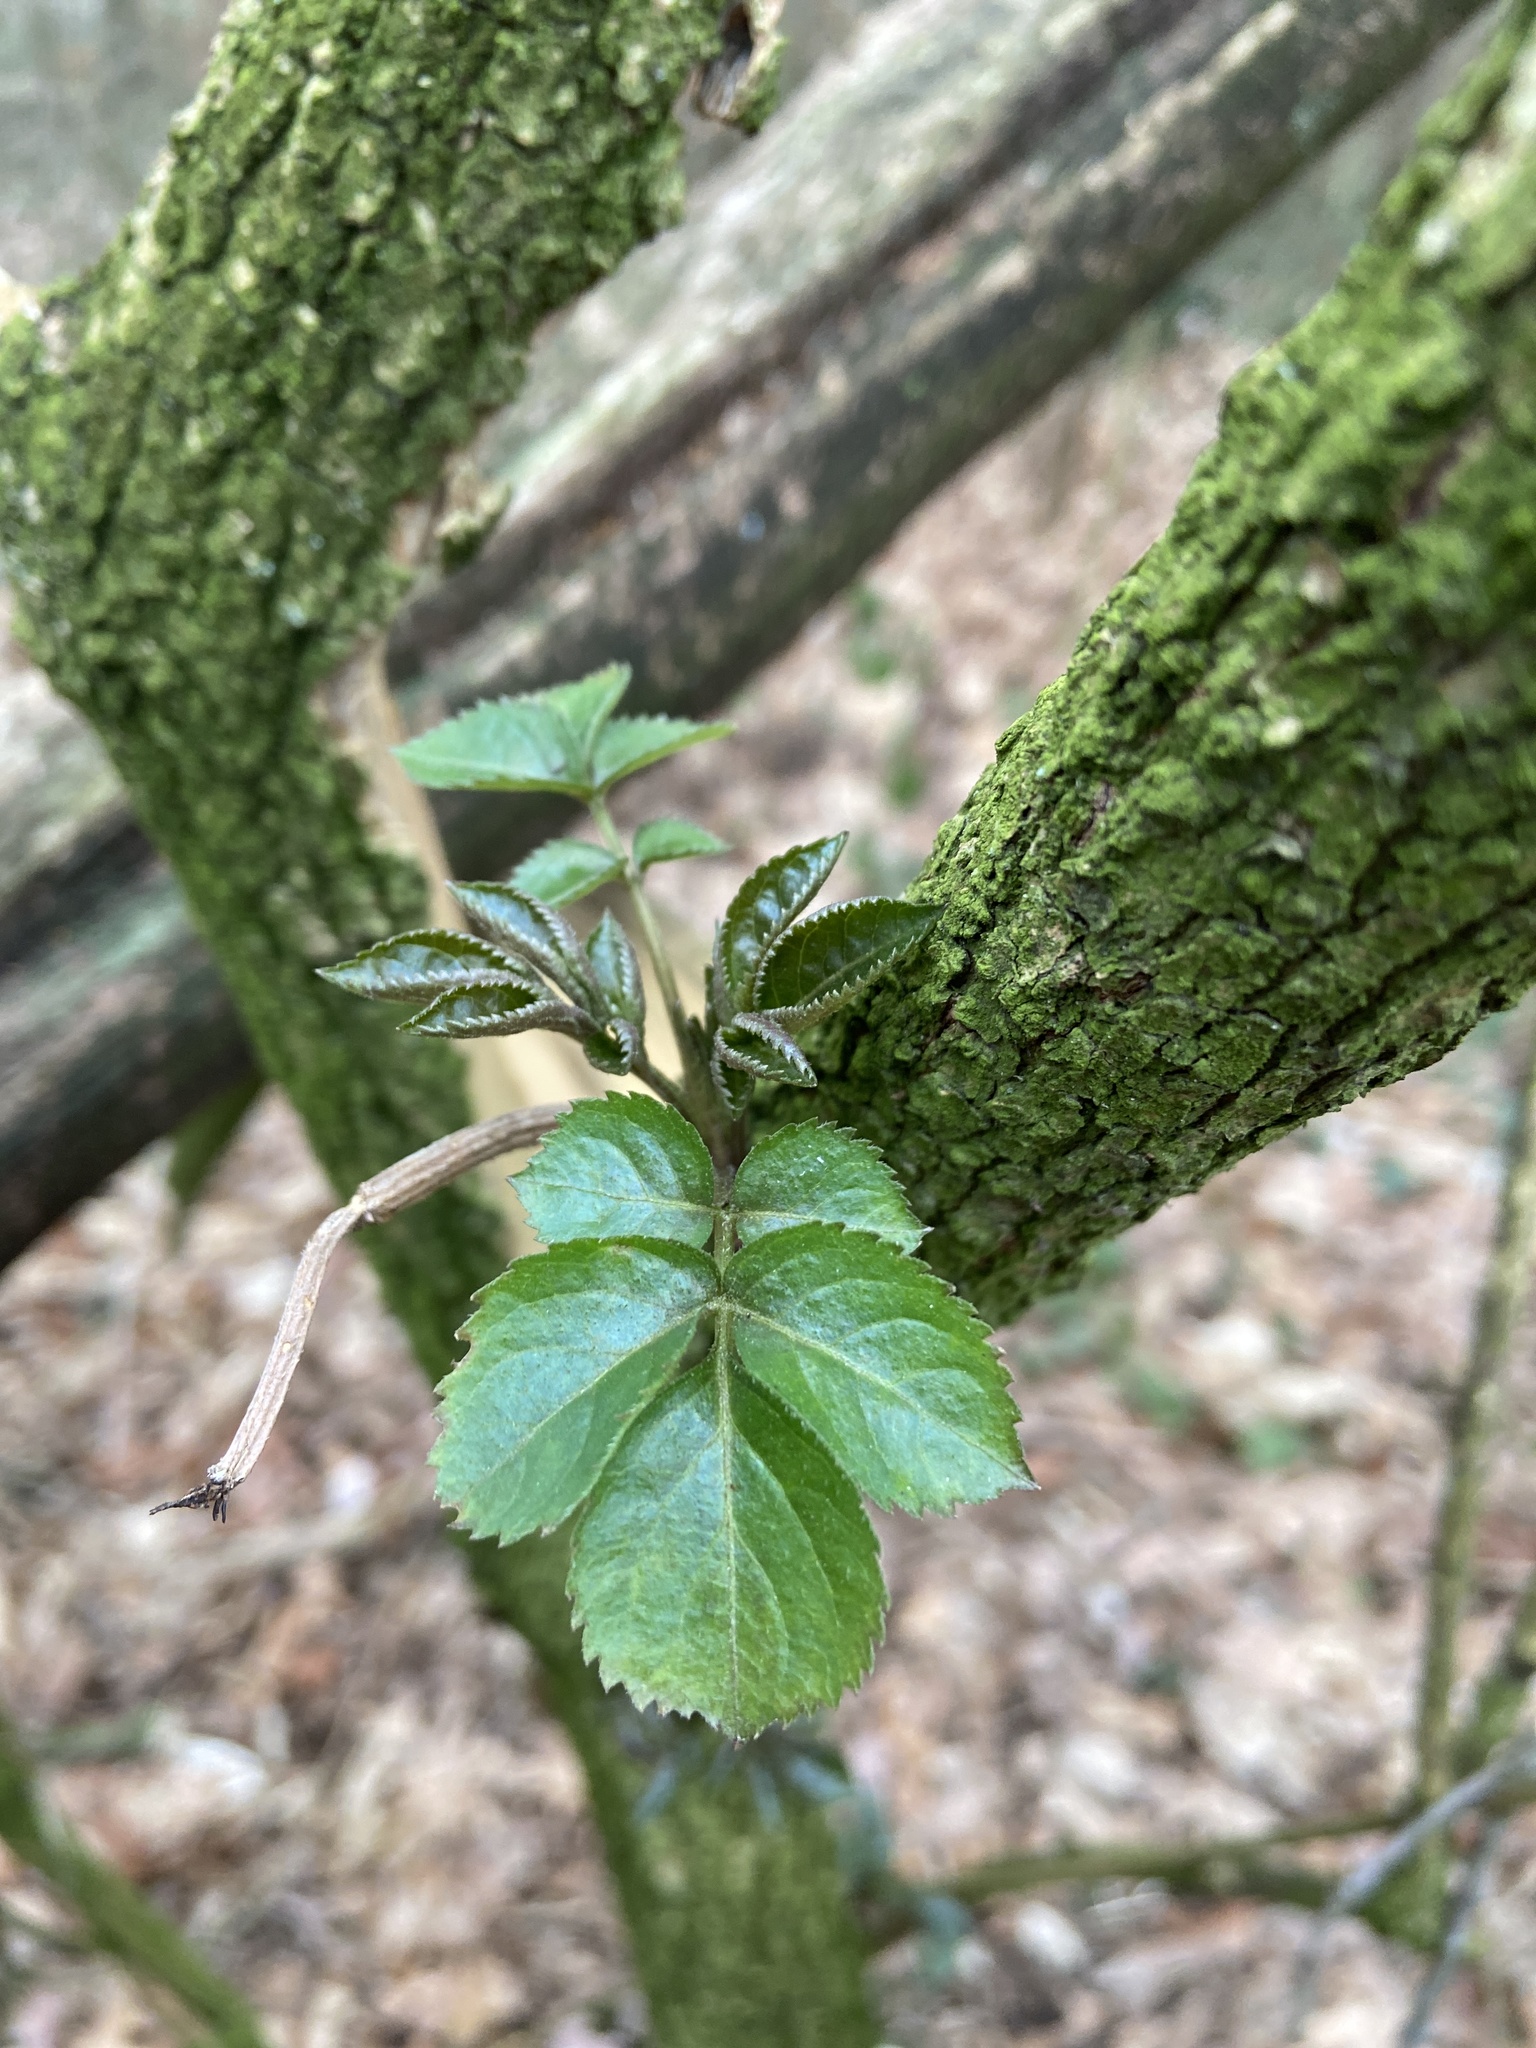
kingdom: Plantae
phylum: Tracheophyta
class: Magnoliopsida
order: Dipsacales
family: Viburnaceae
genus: Sambucus
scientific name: Sambucus nigra
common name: Elder
